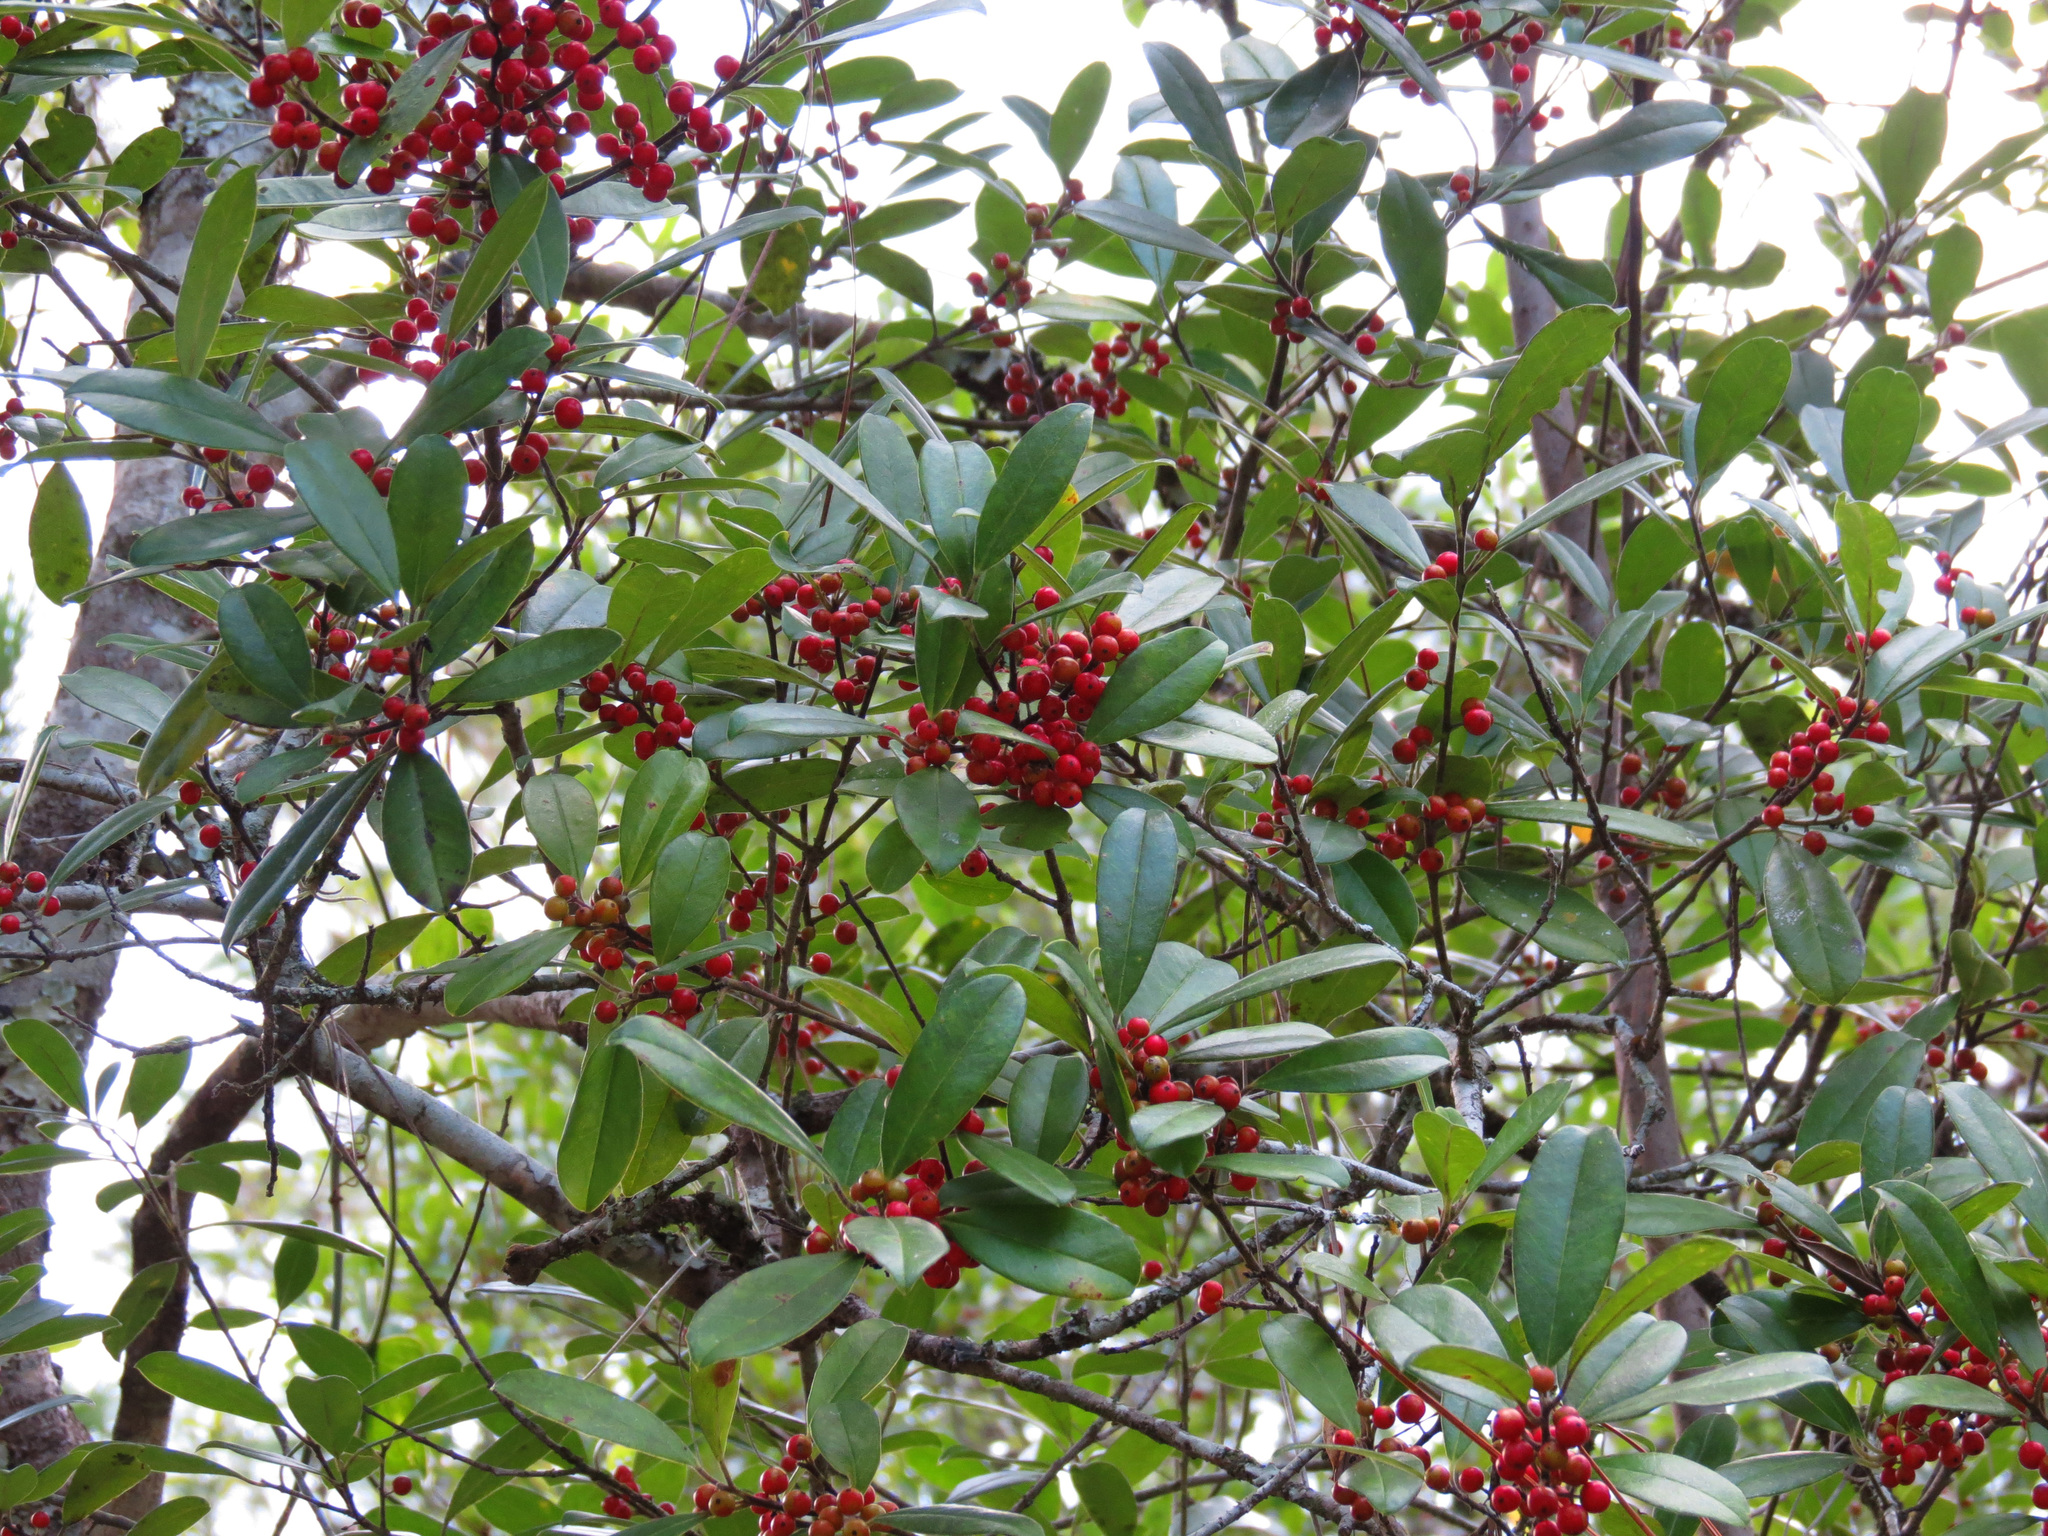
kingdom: Plantae
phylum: Tracheophyta
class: Magnoliopsida
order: Aquifoliales
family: Aquifoliaceae
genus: Ilex
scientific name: Ilex cassine
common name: Dahoon
